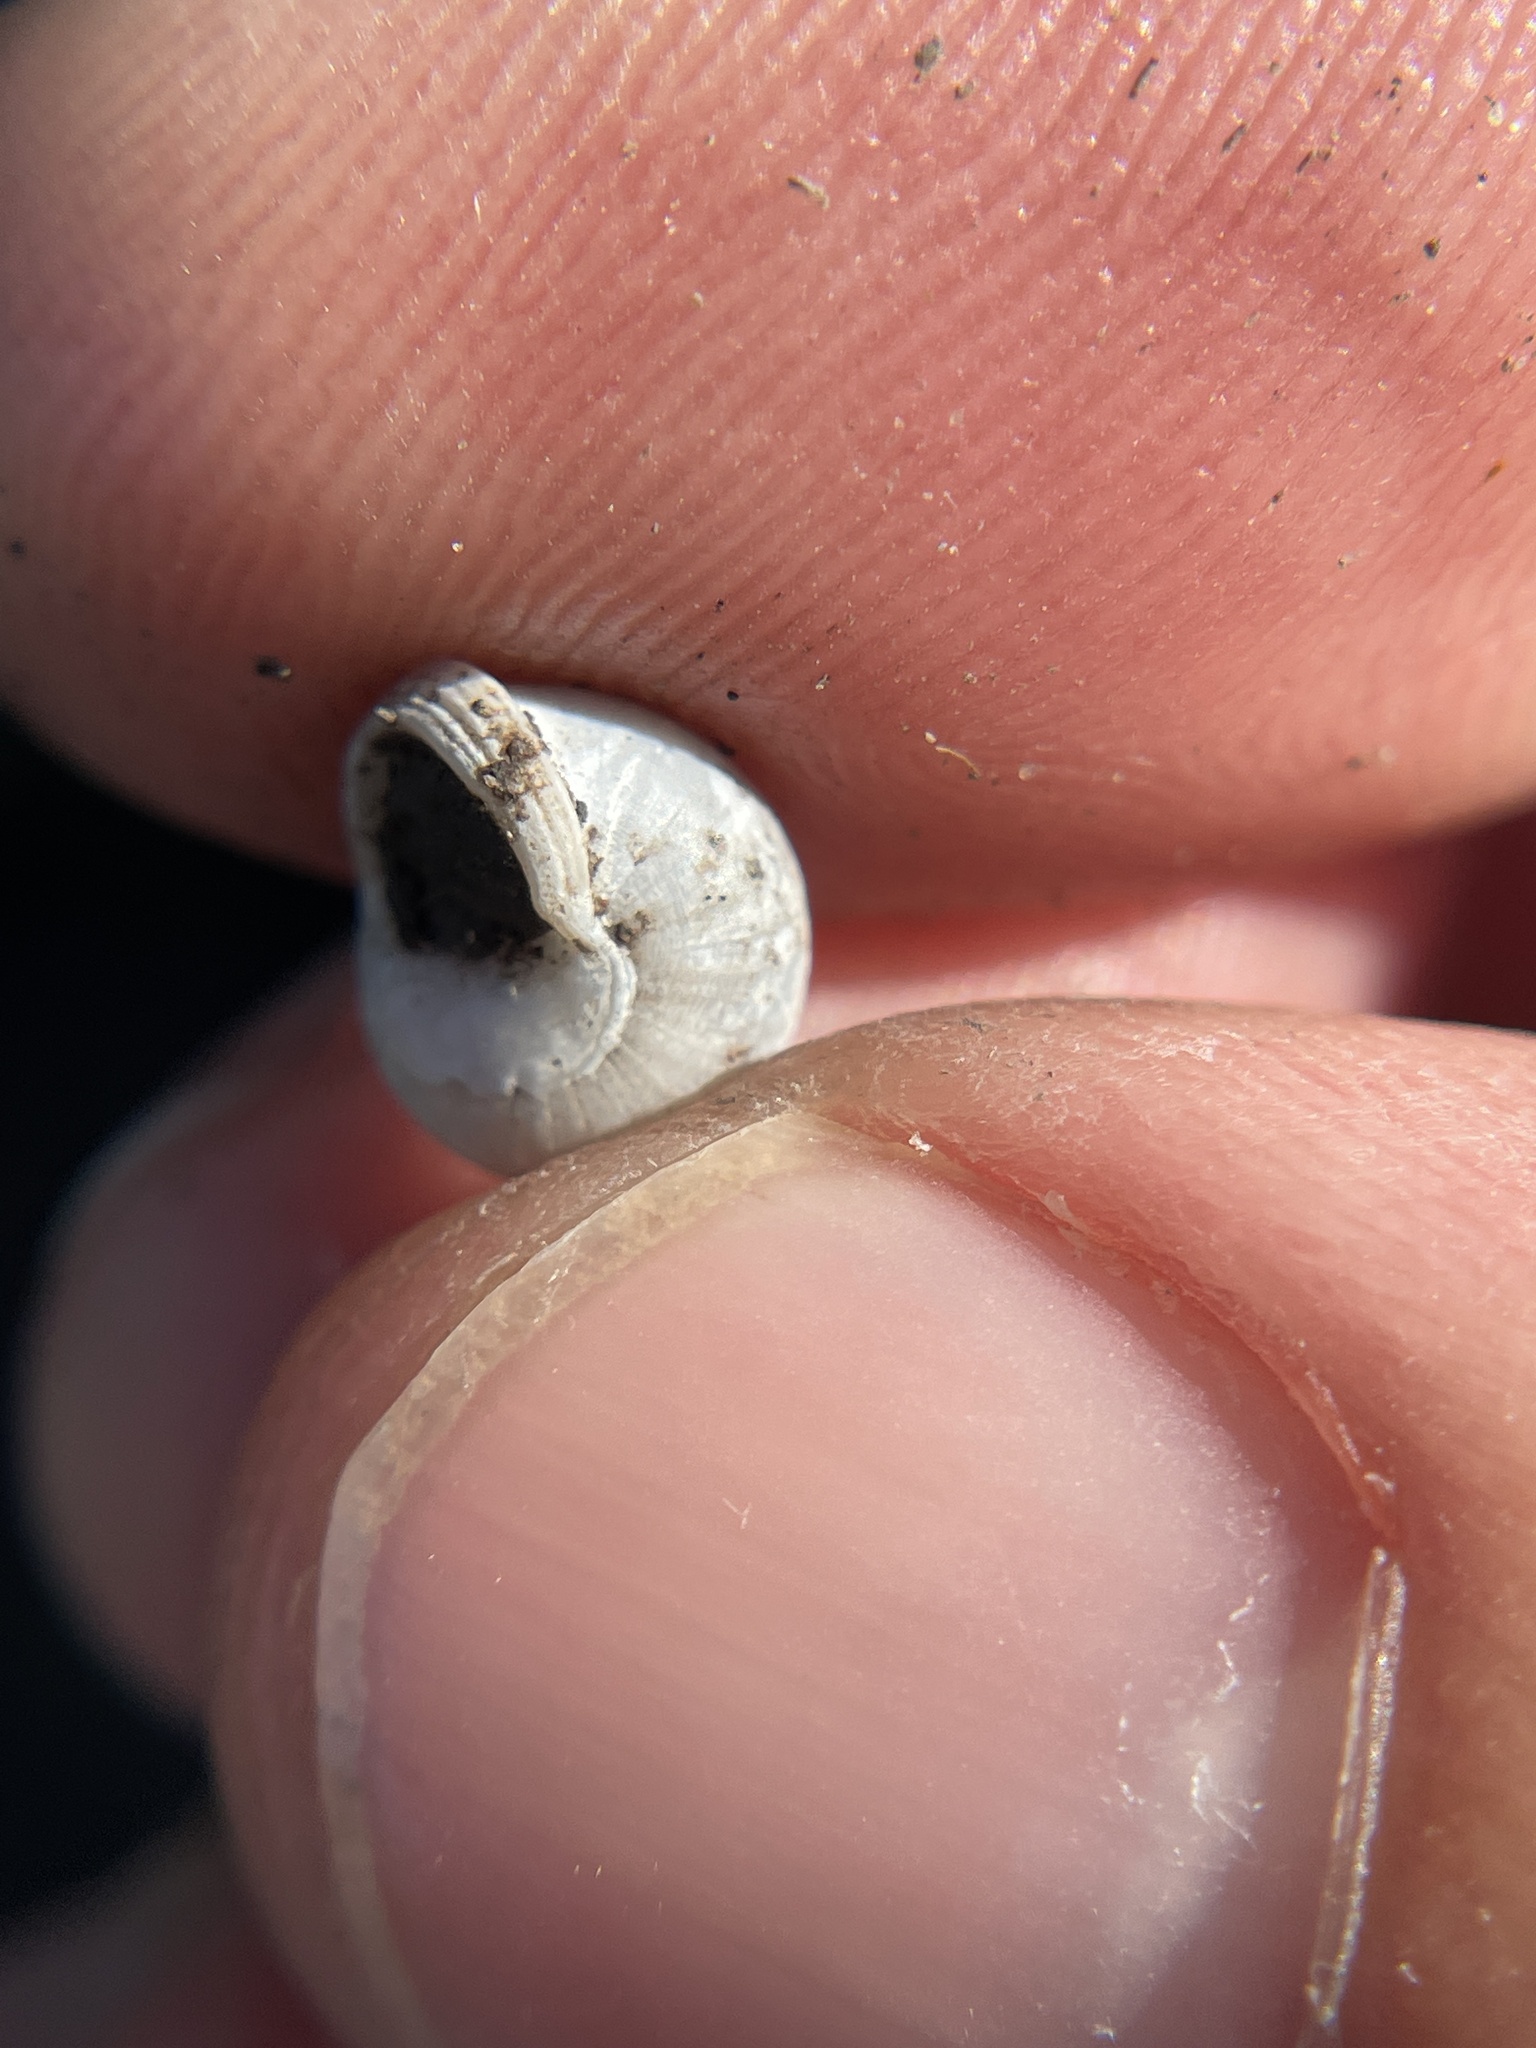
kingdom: Animalia
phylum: Mollusca
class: Gastropoda
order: Cycloneritida
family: Helicinidae
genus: Helicina
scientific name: Helicina orbiculata
